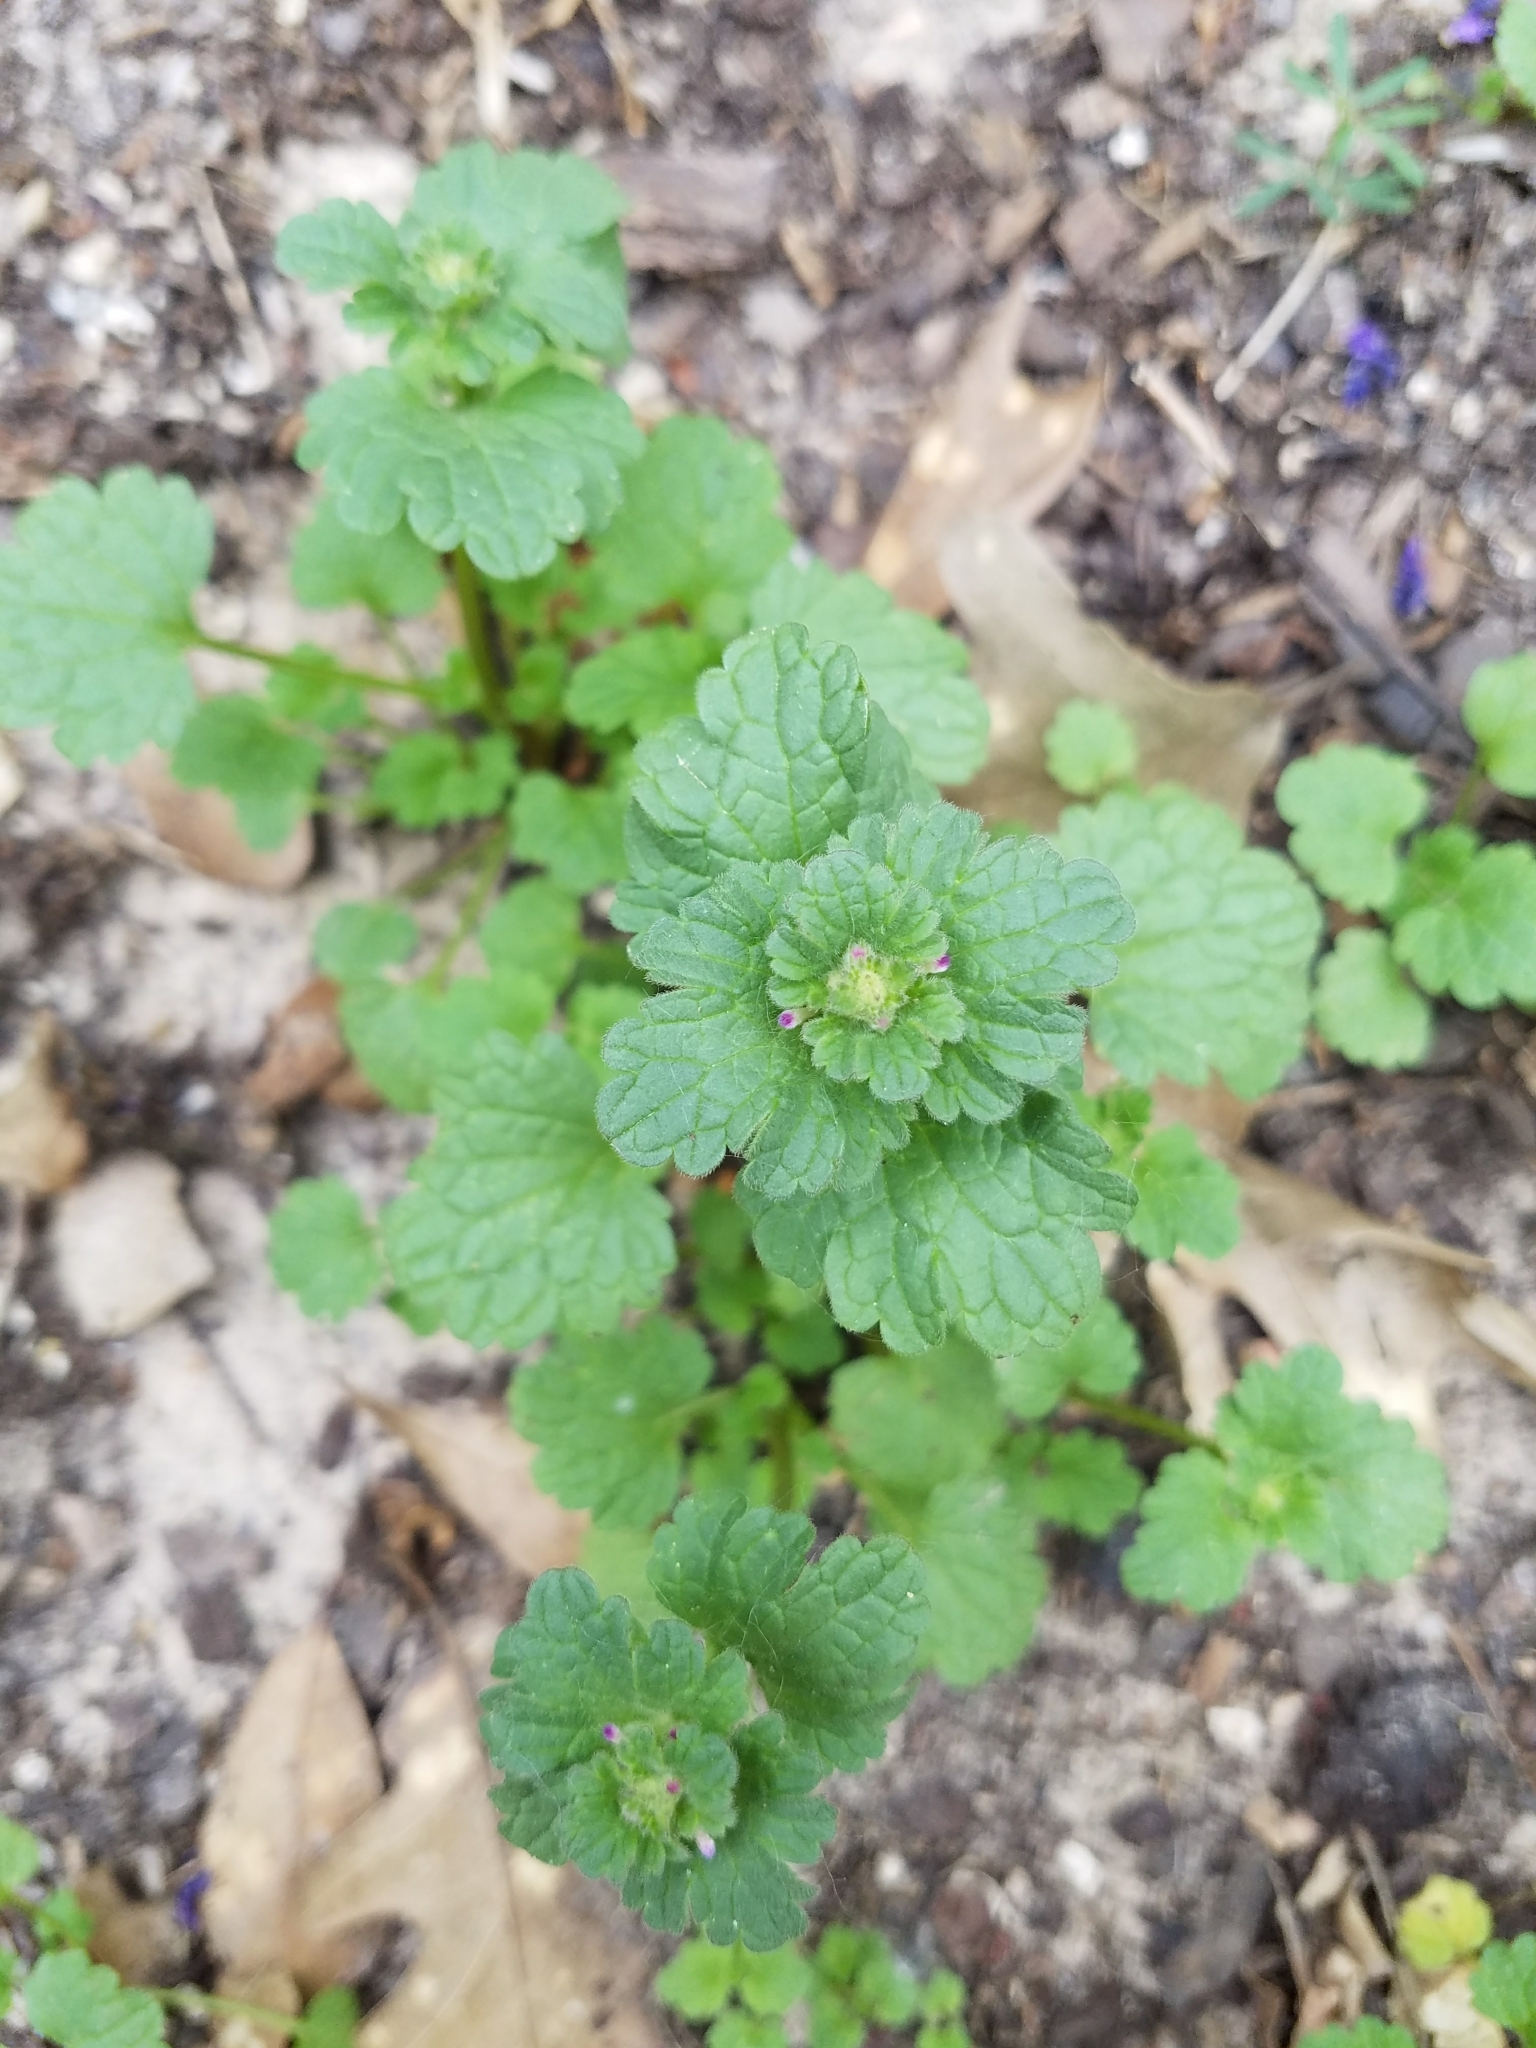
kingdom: Plantae
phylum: Tracheophyta
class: Magnoliopsida
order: Lamiales
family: Lamiaceae
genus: Lamium
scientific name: Lamium amplexicaule
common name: Henbit dead-nettle
